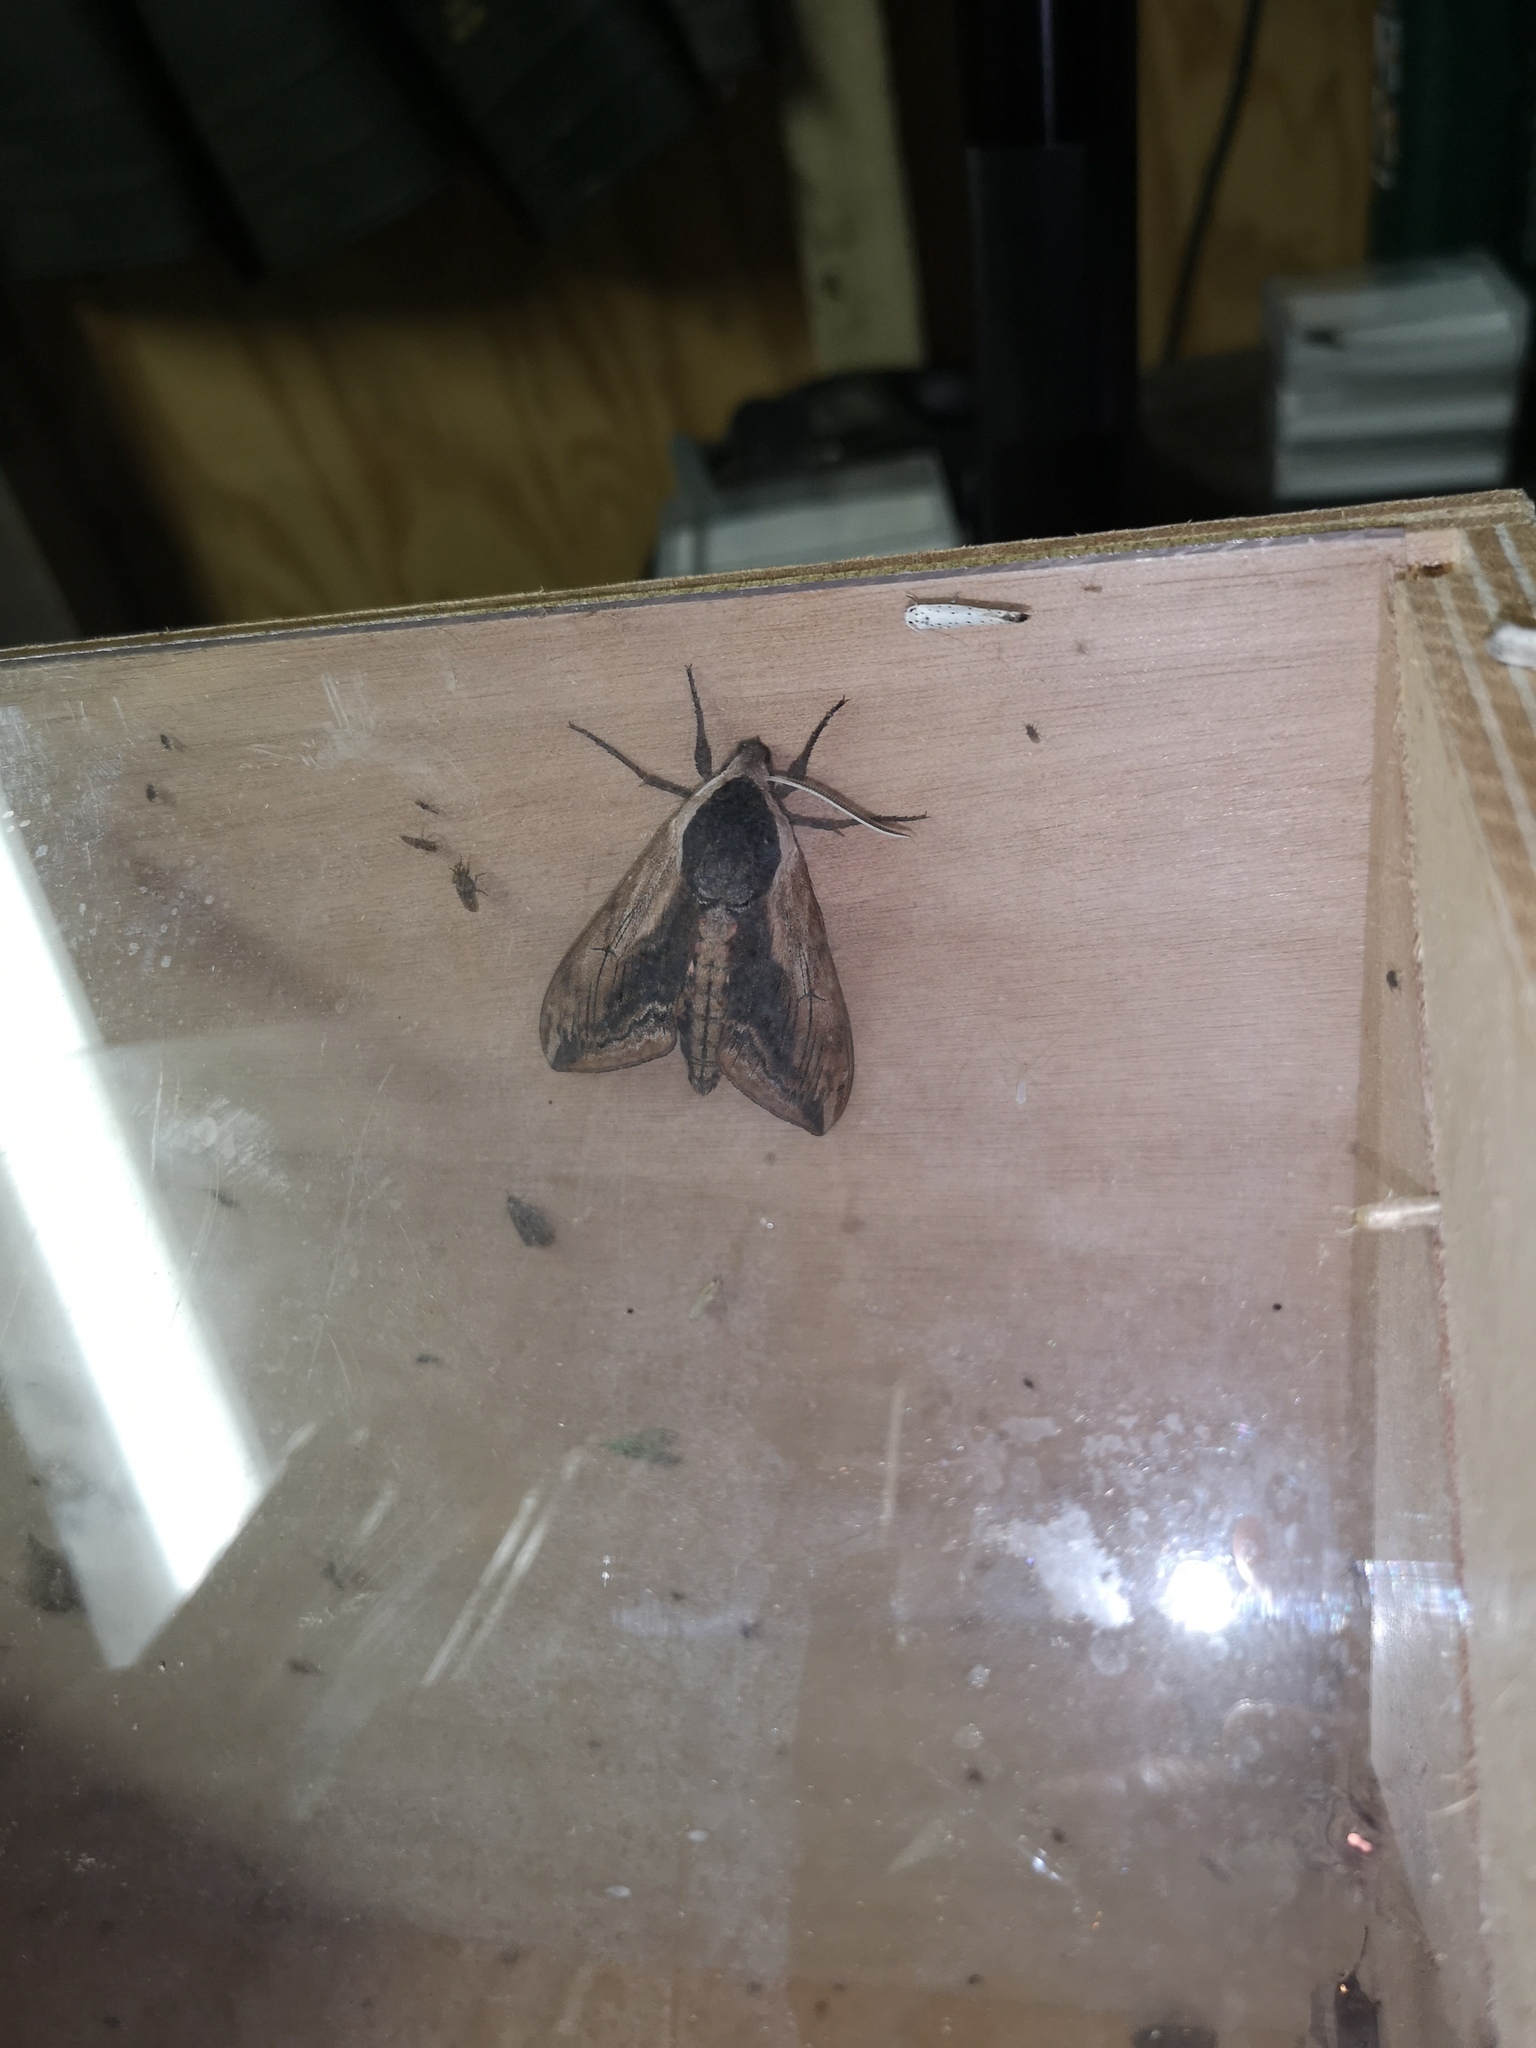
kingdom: Animalia
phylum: Arthropoda
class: Insecta
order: Lepidoptera
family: Sphingidae
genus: Sphinx
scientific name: Sphinx ligustri
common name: Privet hawk-moth
